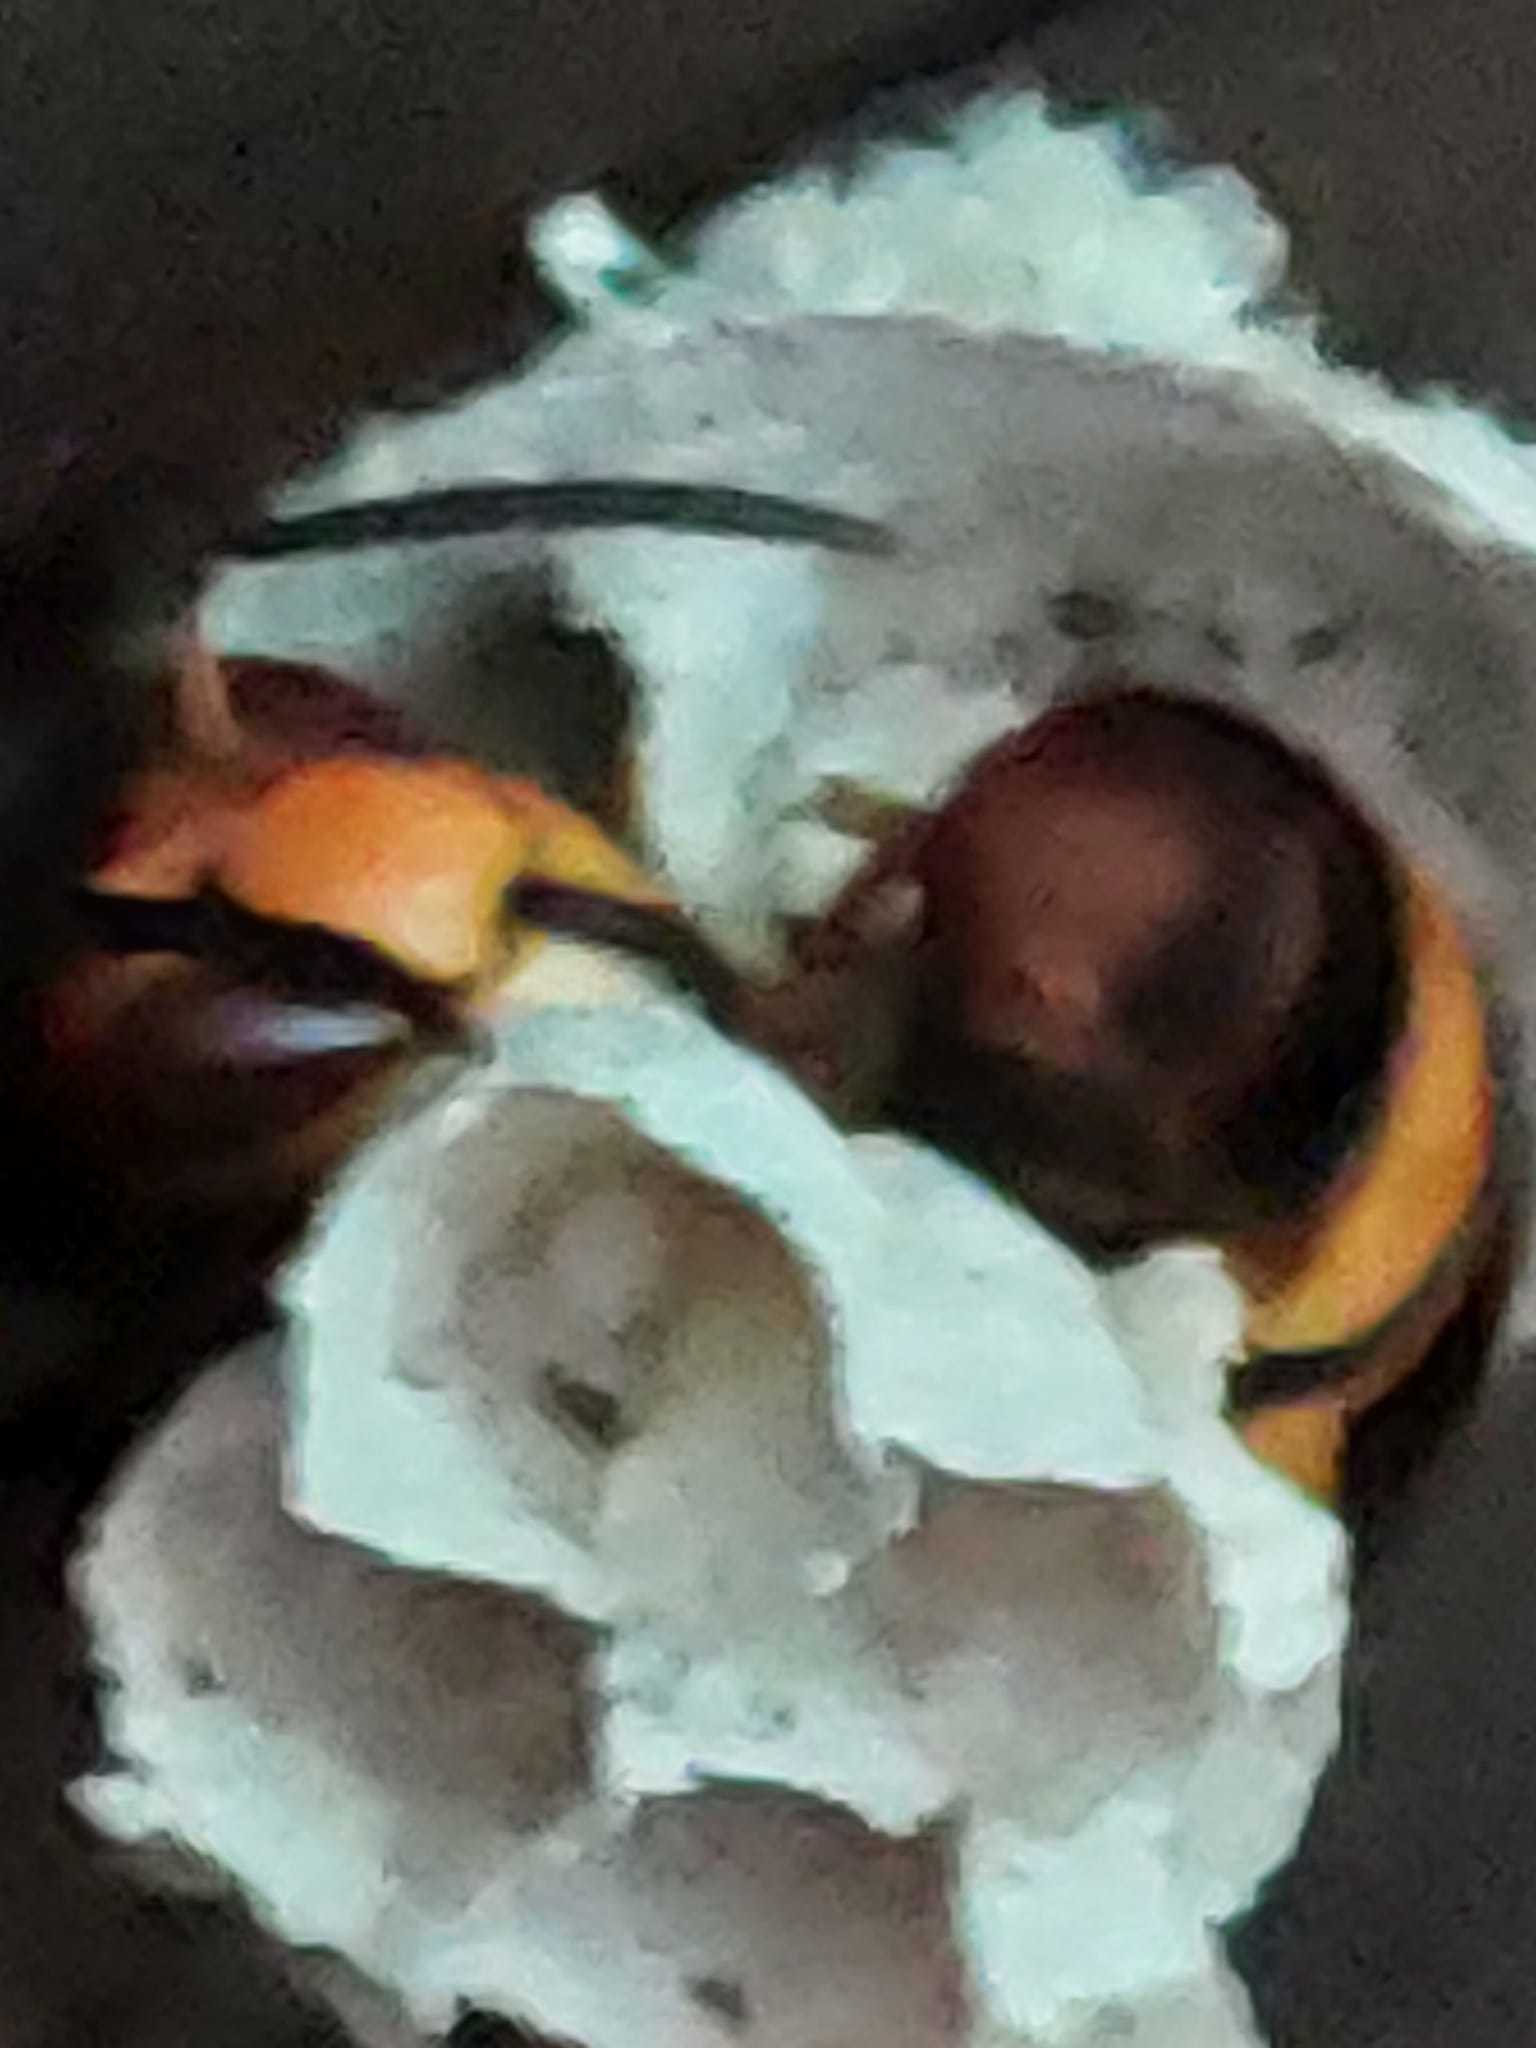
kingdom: Animalia
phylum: Arthropoda
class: Insecta
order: Hymenoptera
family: Vespidae
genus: Vespa
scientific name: Vespa velutina
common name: Asian hornet
